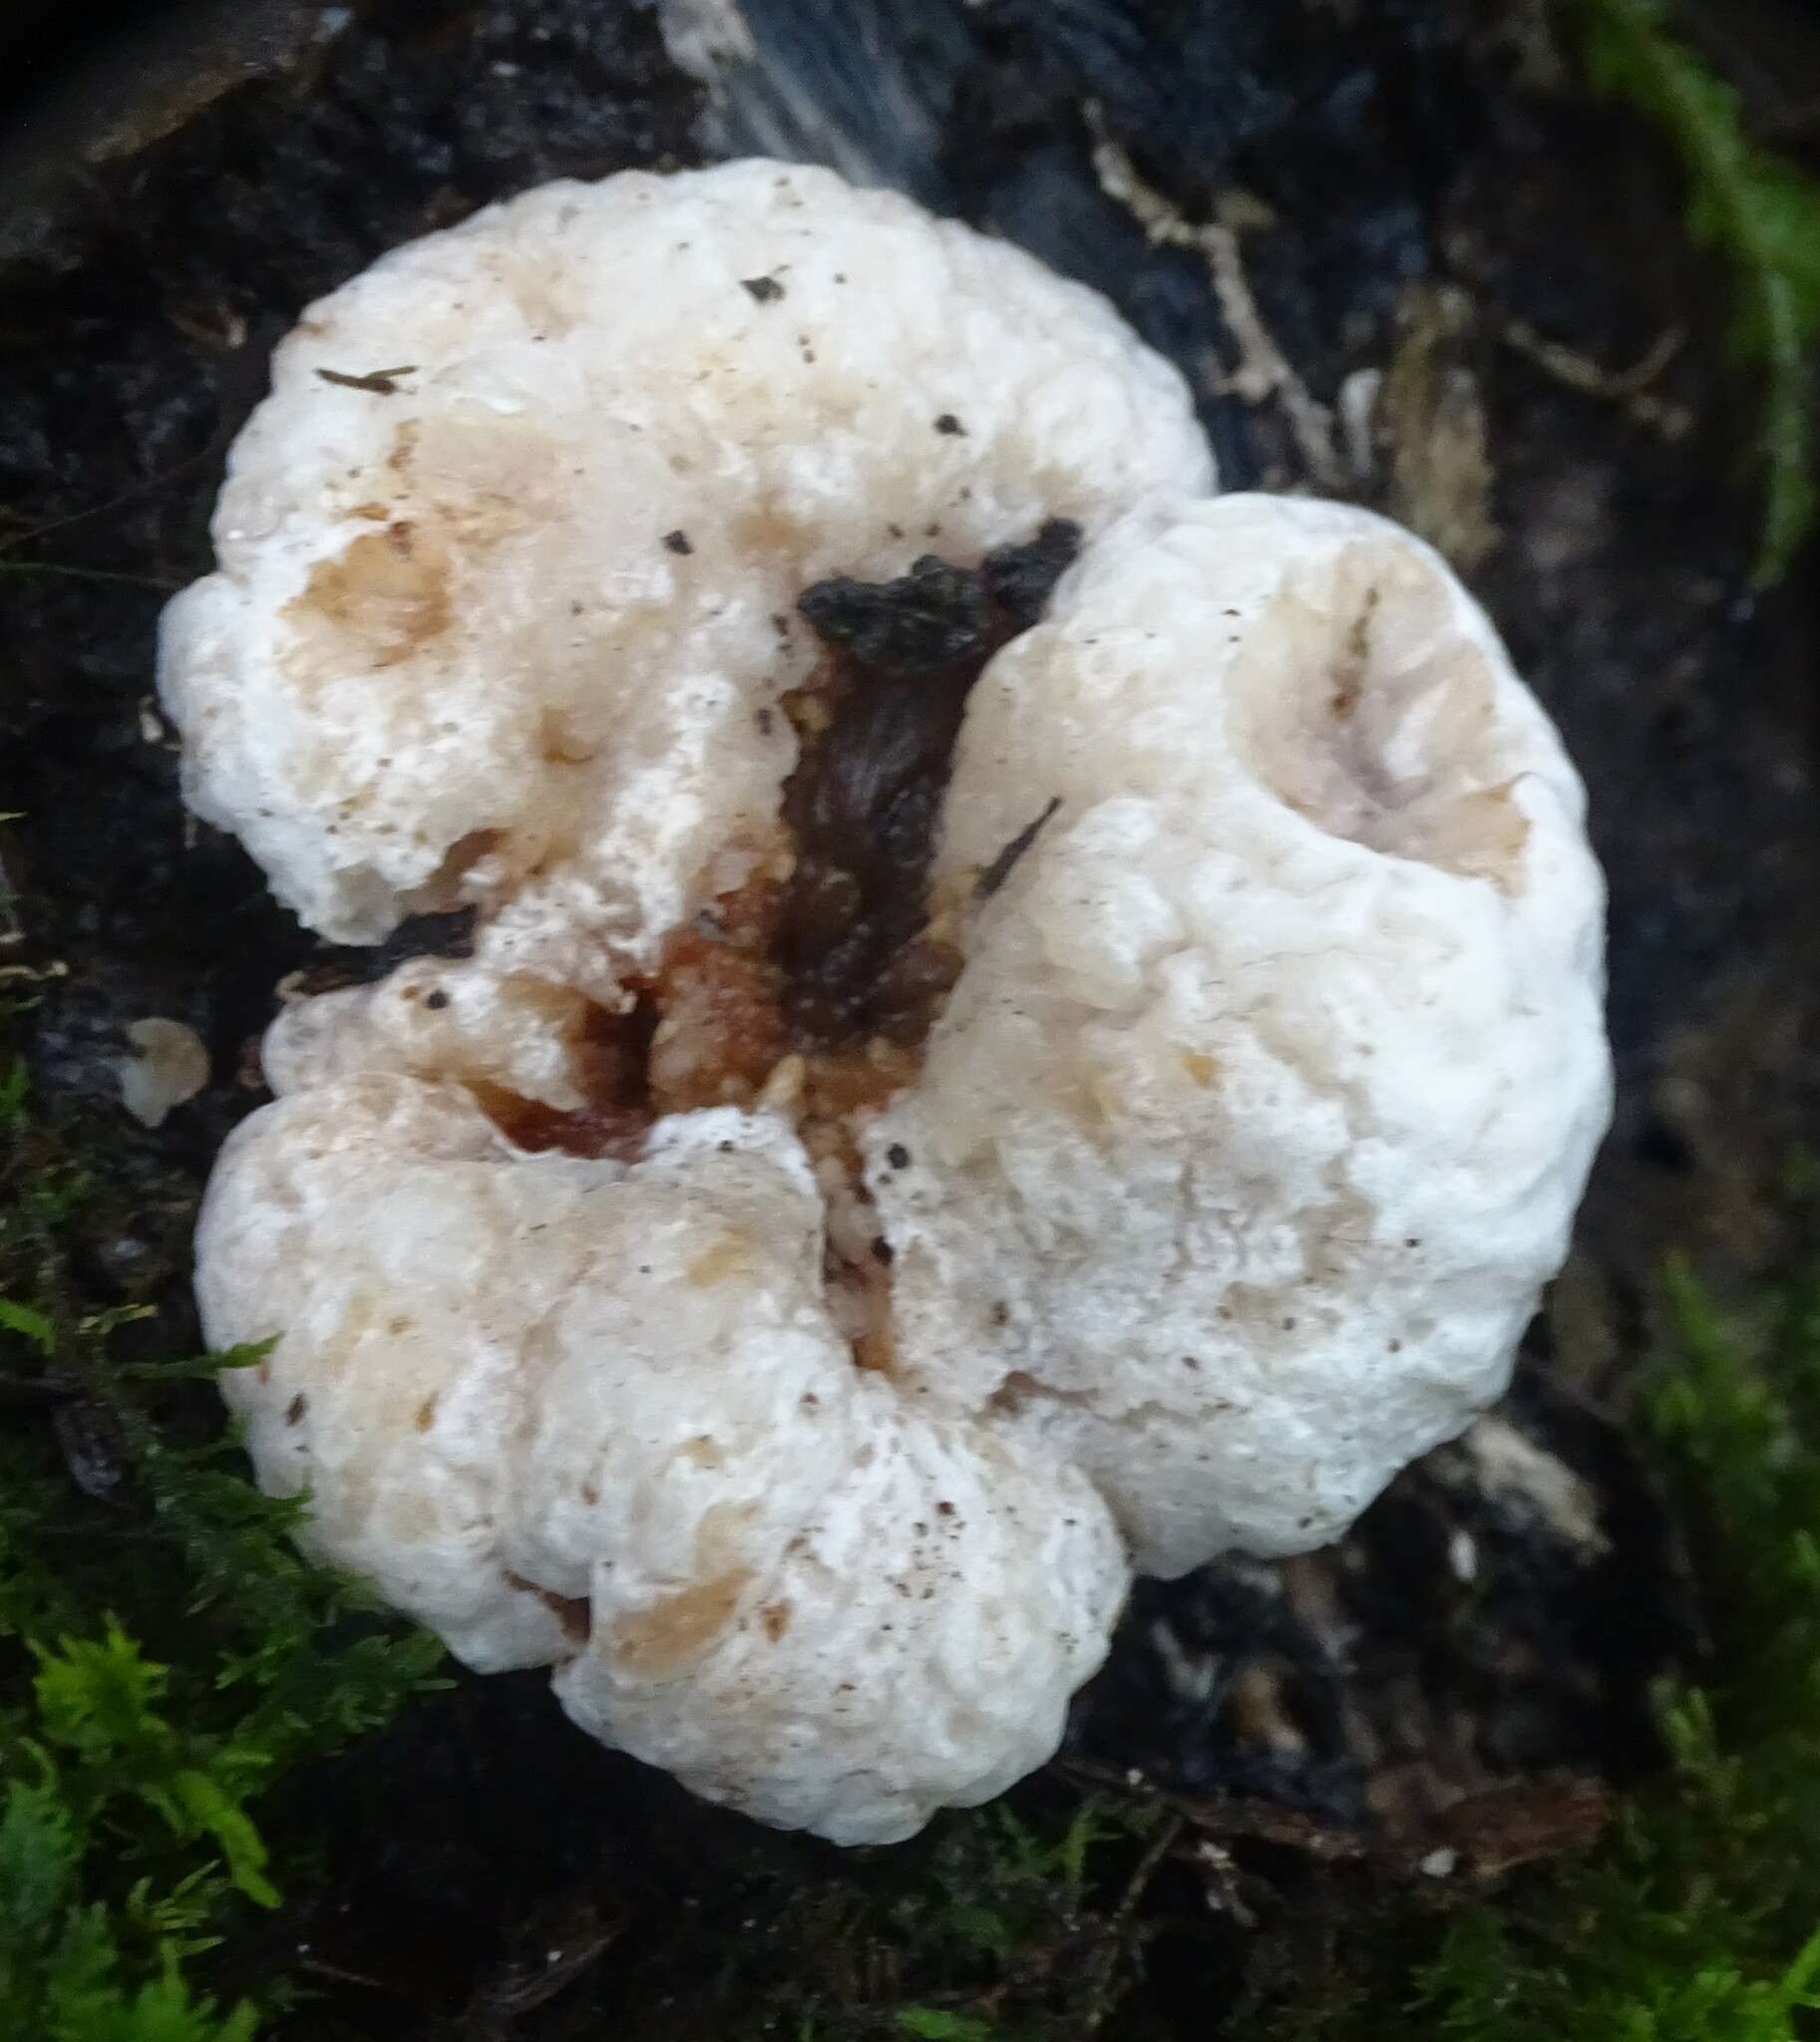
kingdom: Fungi
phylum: Basidiomycota
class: Agaricomycetes
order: Agaricales
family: Entolomataceae
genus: Entoloma
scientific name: Entoloma abortivum
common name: Aborted entoloma
